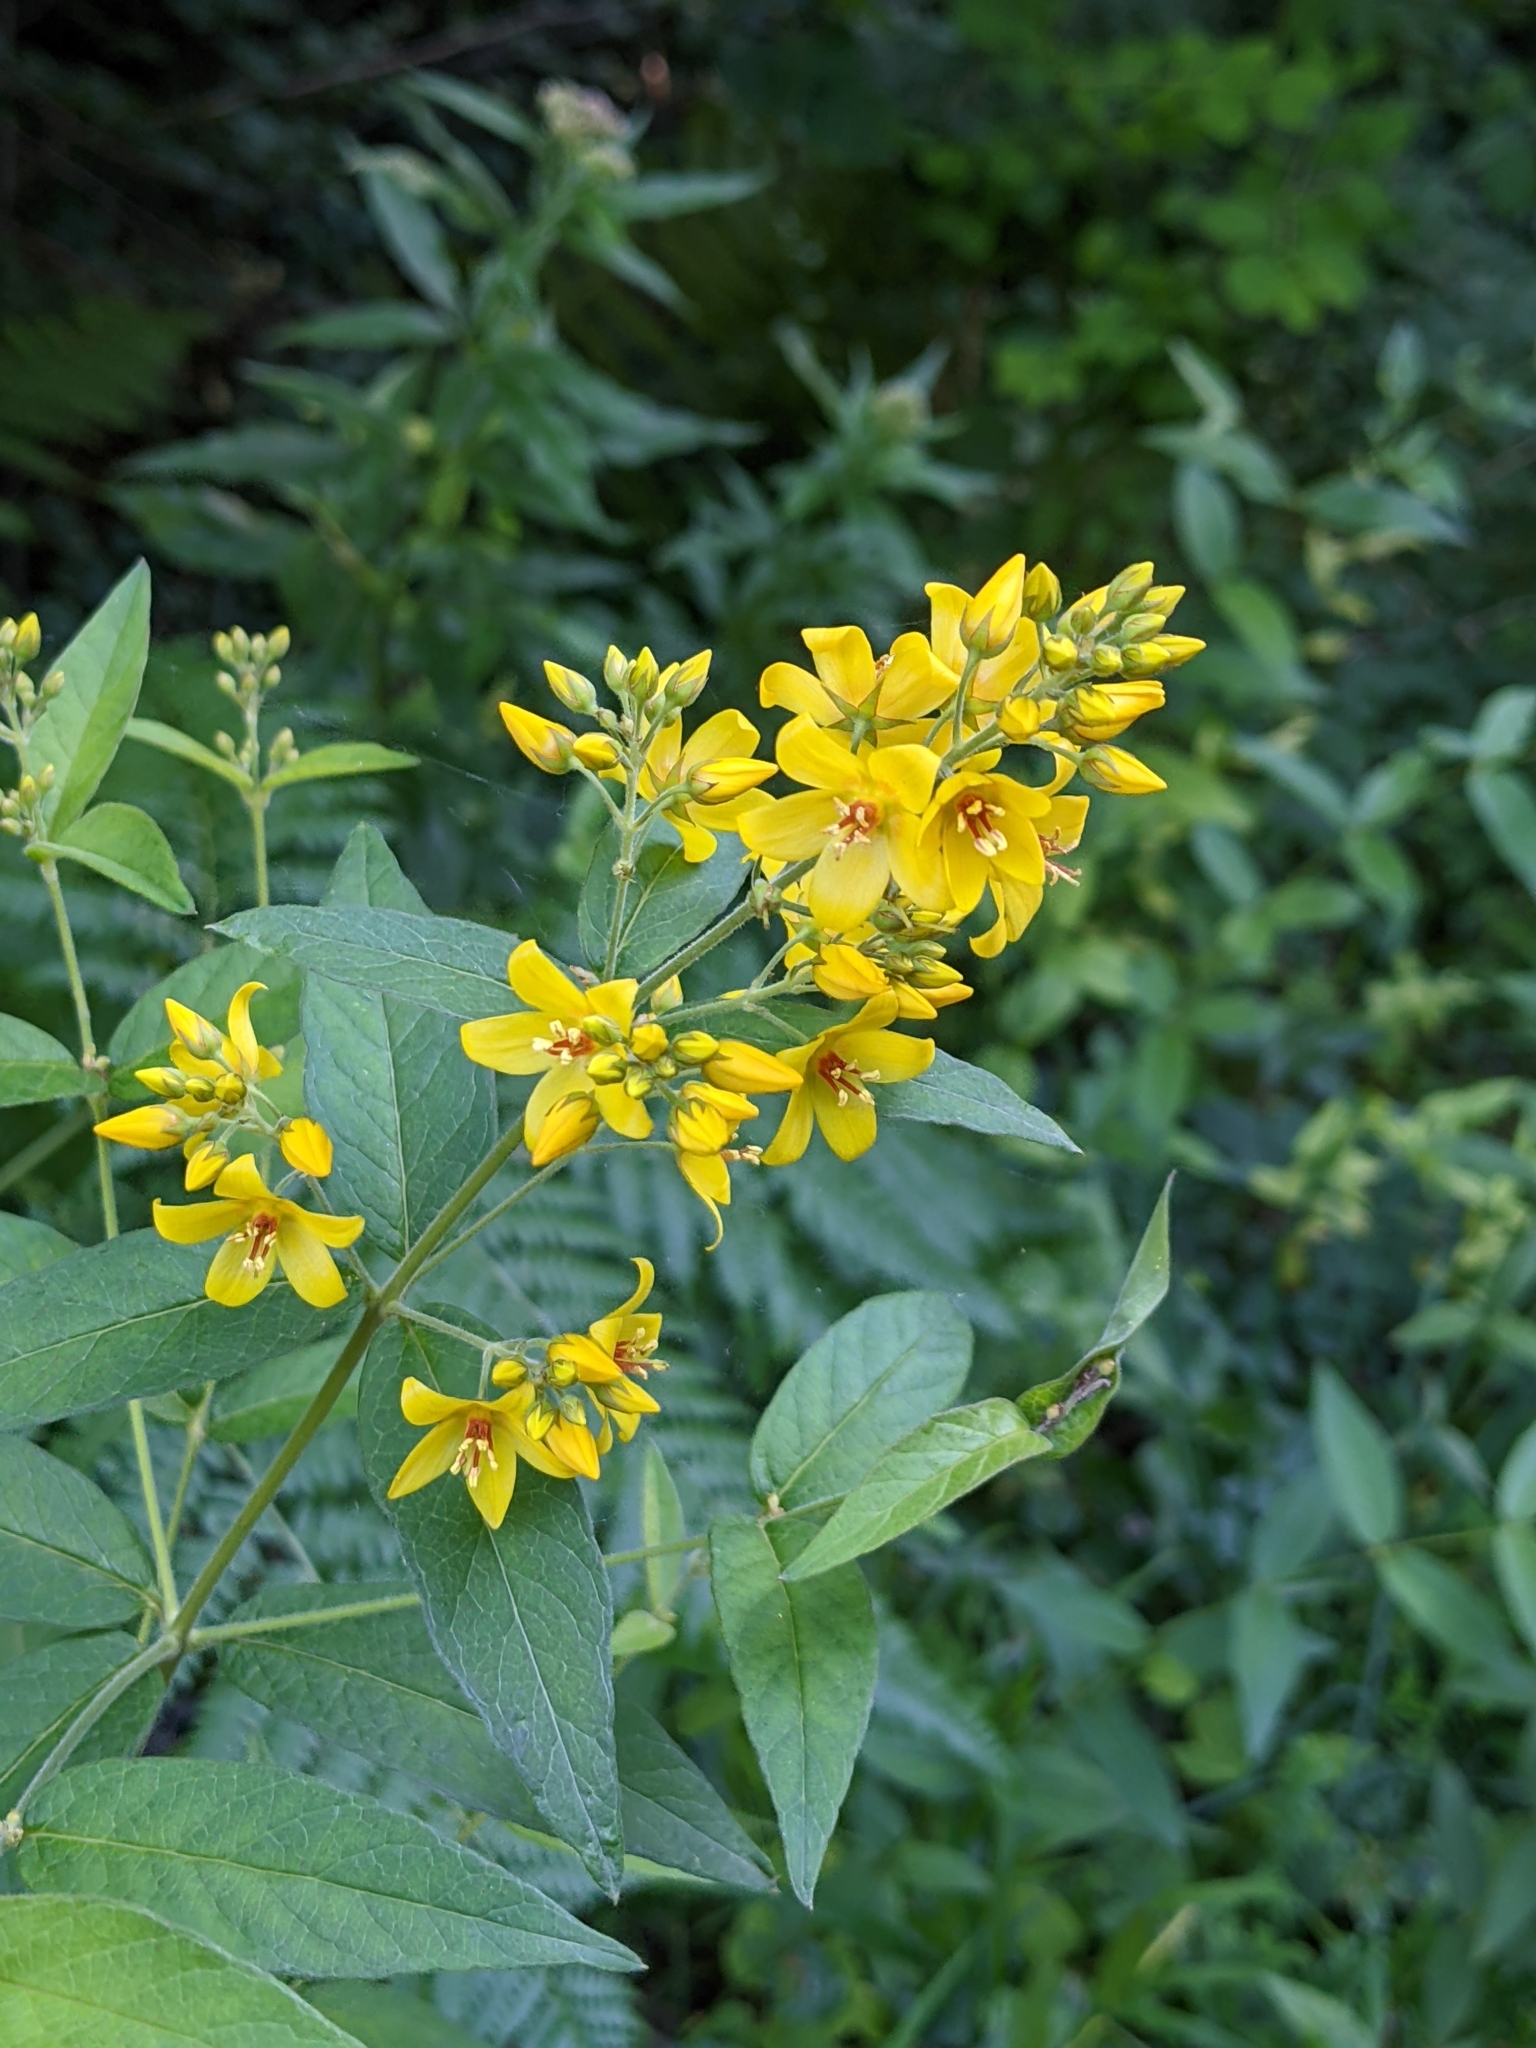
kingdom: Plantae
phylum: Tracheophyta
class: Magnoliopsida
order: Ericales
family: Primulaceae
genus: Lysimachia
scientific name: Lysimachia vulgaris
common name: Yellow loosestrife
